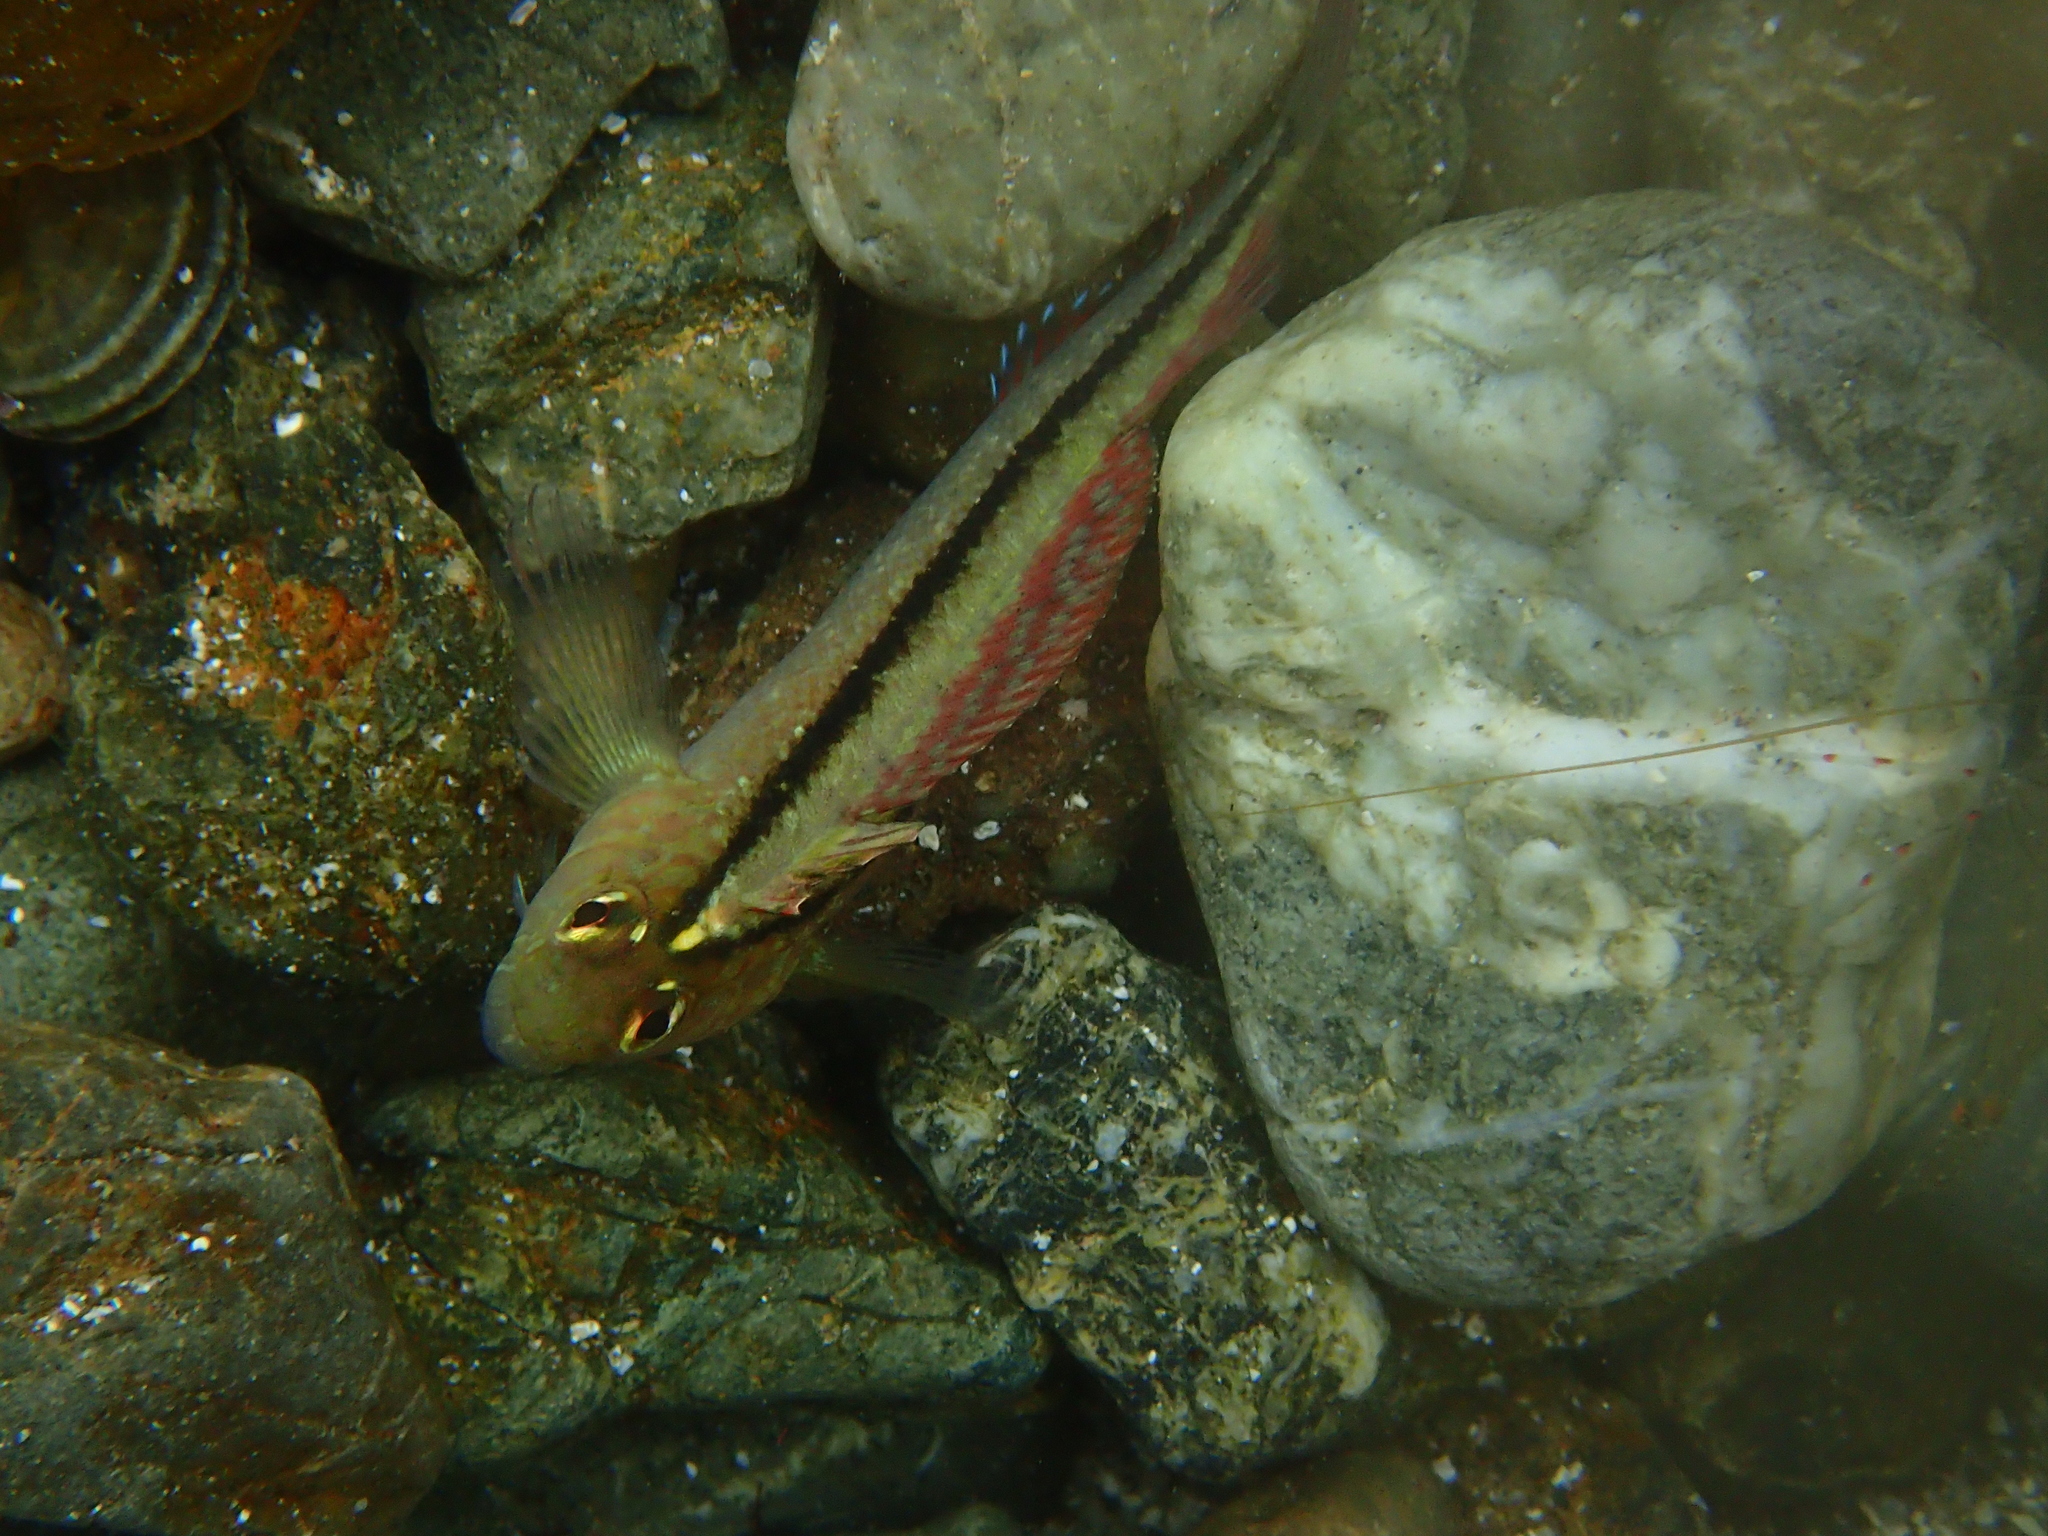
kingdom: Animalia
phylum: Chordata
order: Perciformes
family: Tripterygiidae
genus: Forsterygion
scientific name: Forsterygion lapillum
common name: Common triplefin
